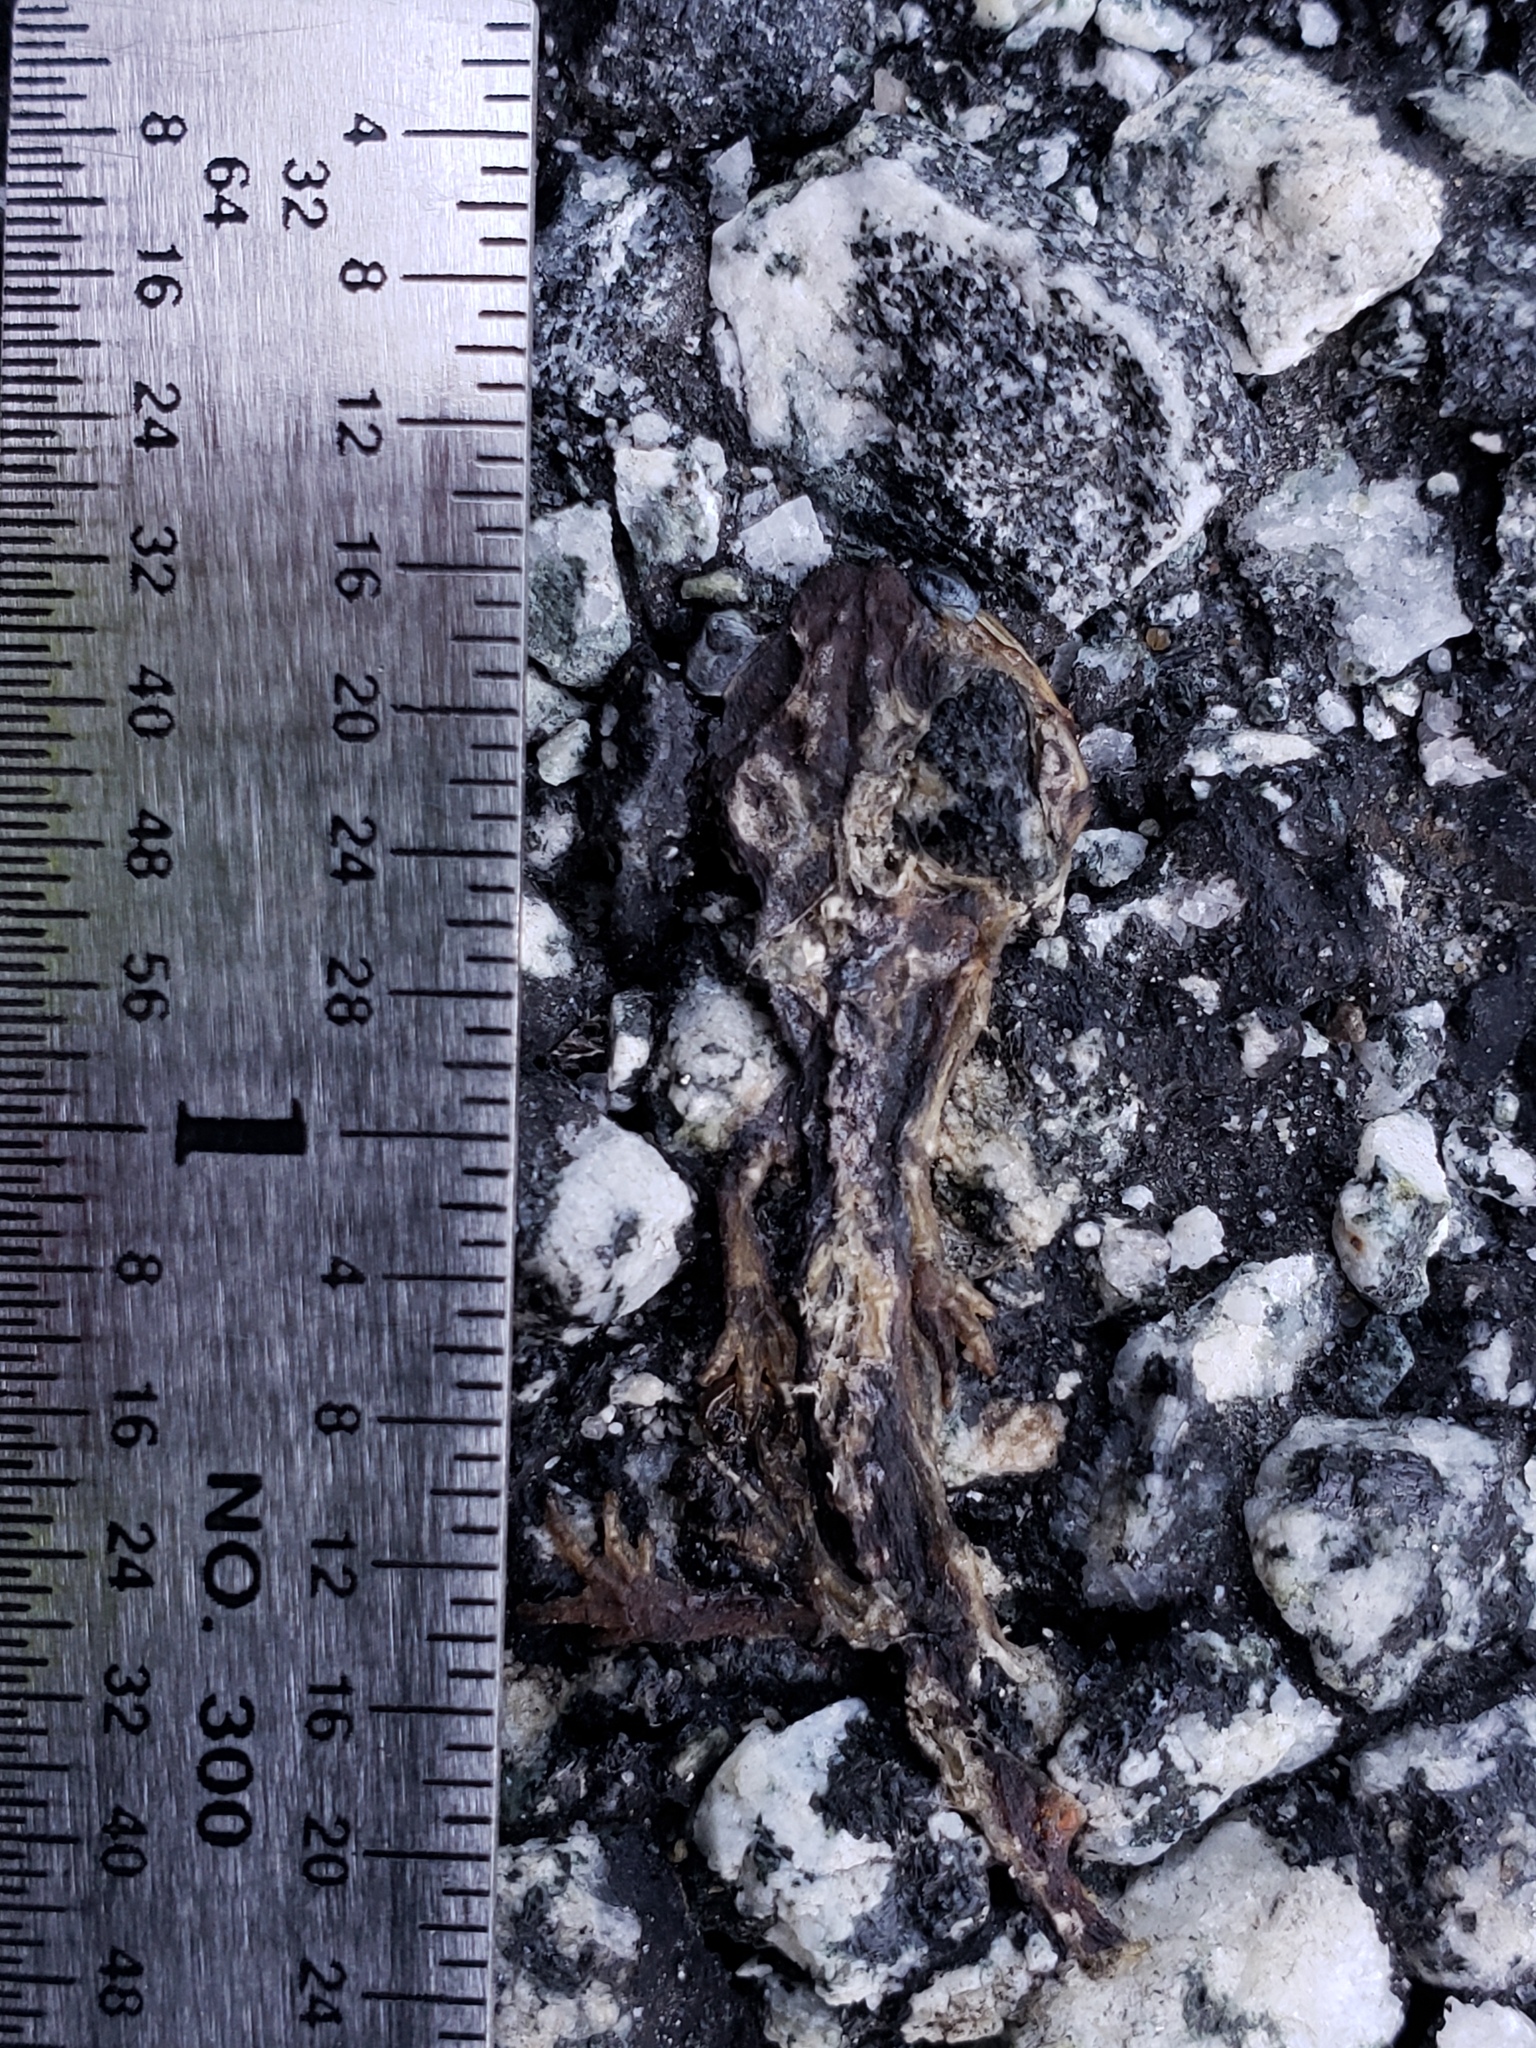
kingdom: Animalia
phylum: Chordata
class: Amphibia
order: Caudata
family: Salamandridae
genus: Taricha
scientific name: Taricha
